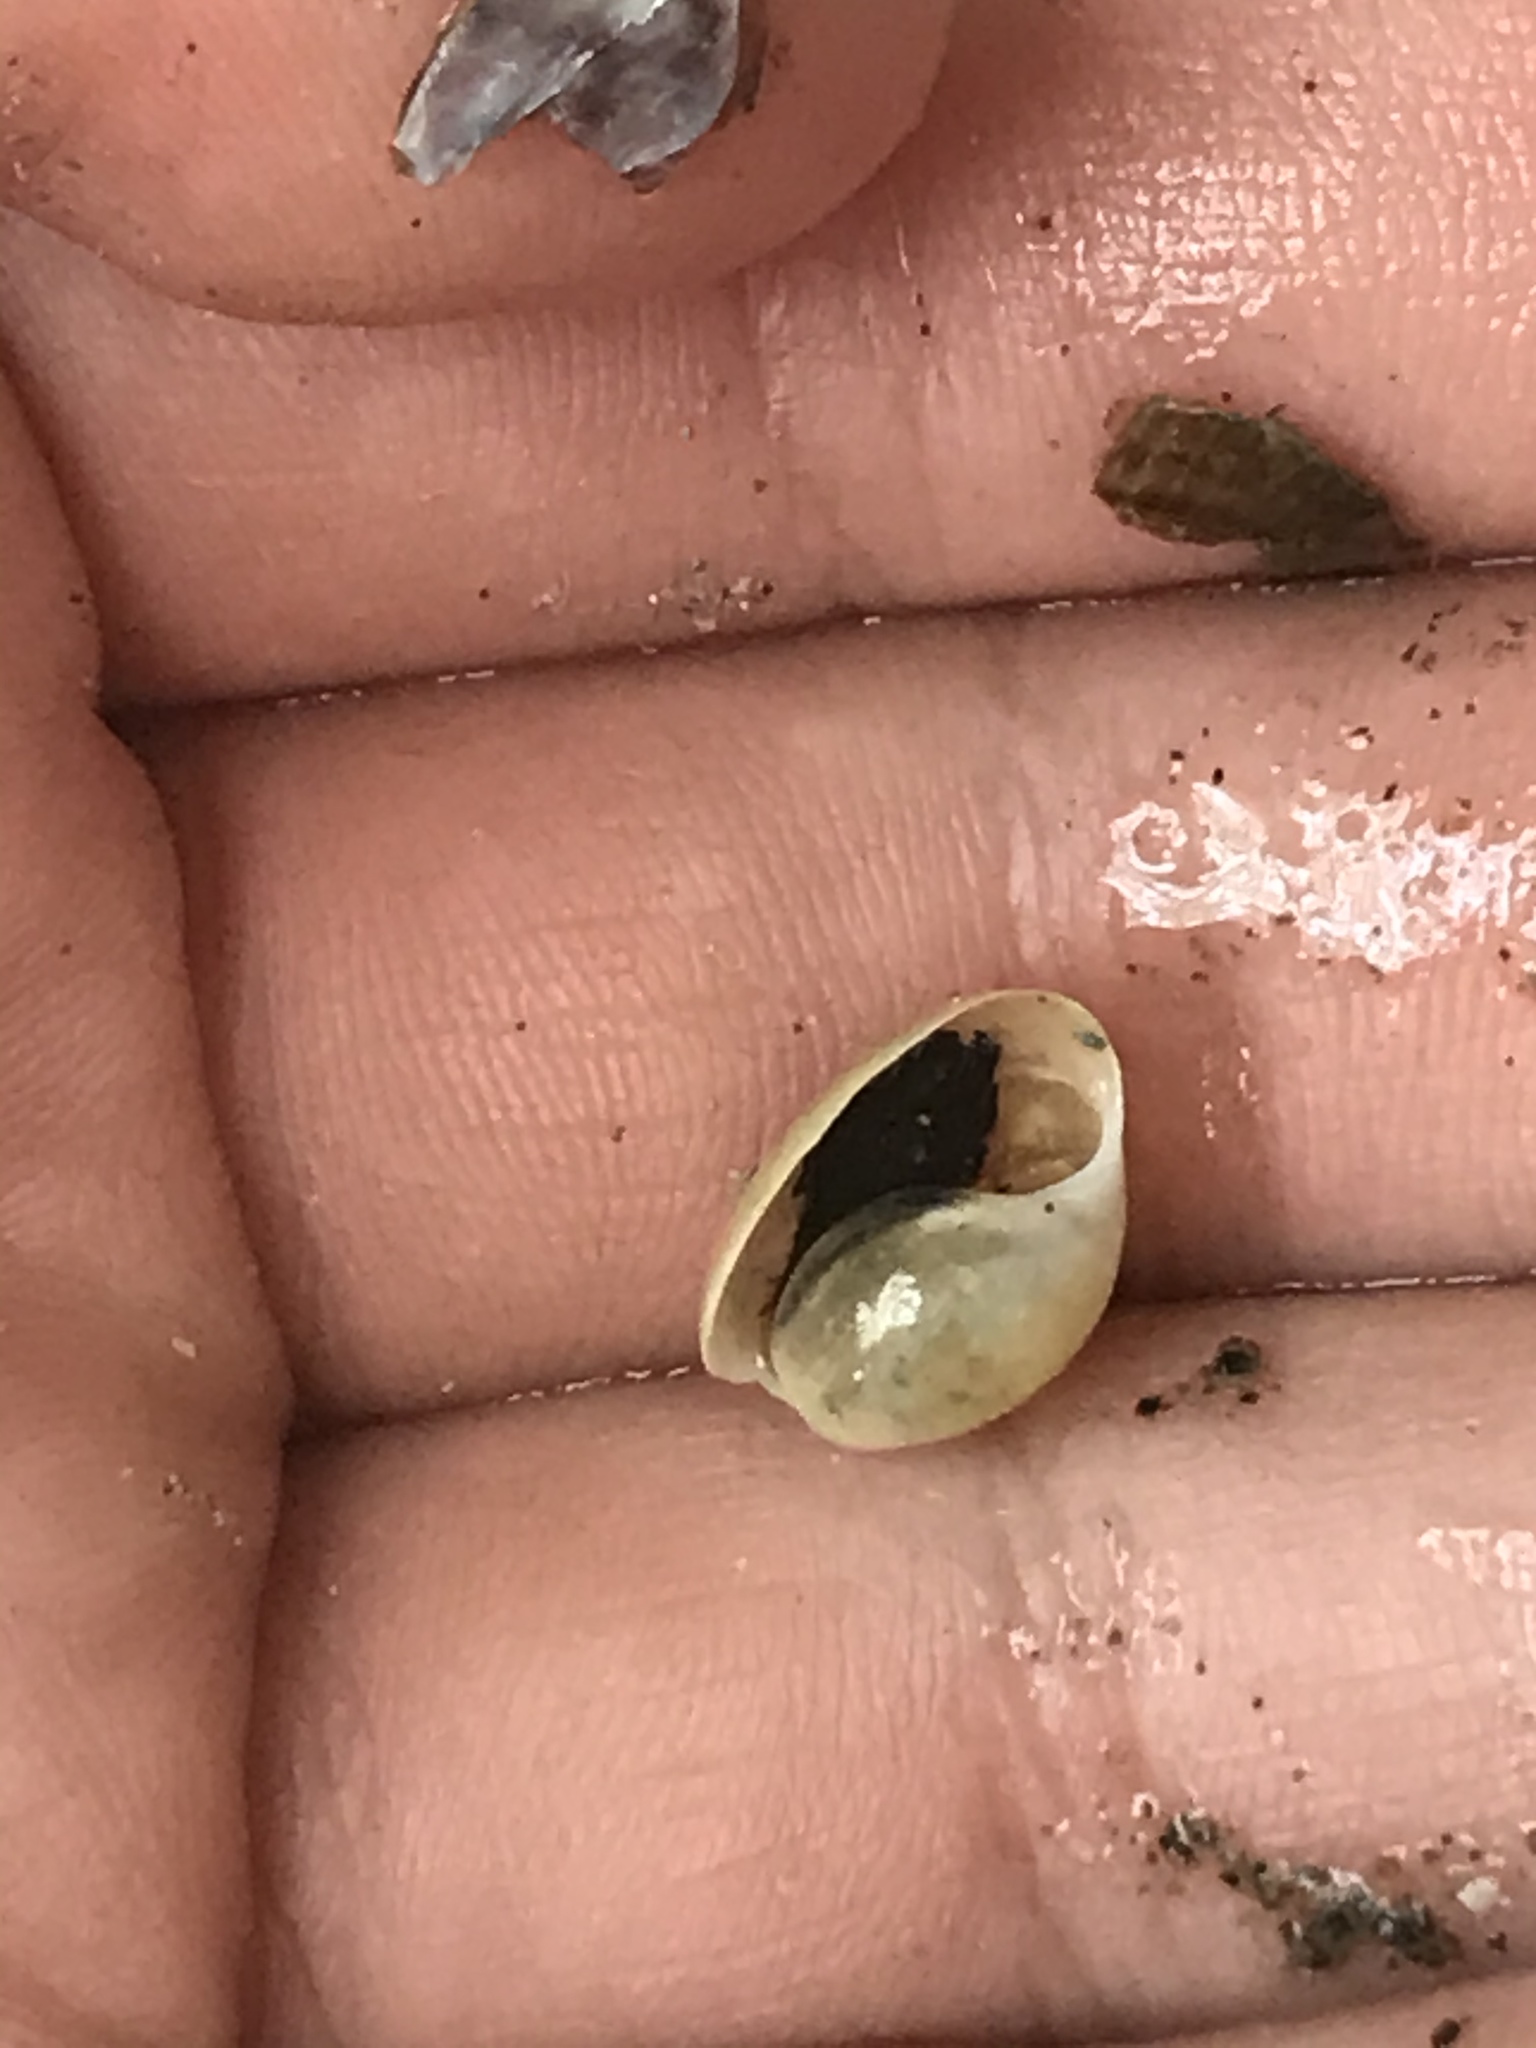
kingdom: Animalia
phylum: Mollusca
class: Gastropoda
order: Cephalaspidea
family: Haminoeidae
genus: Haloa
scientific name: Haloa japonica
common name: Japanese bubble snail
